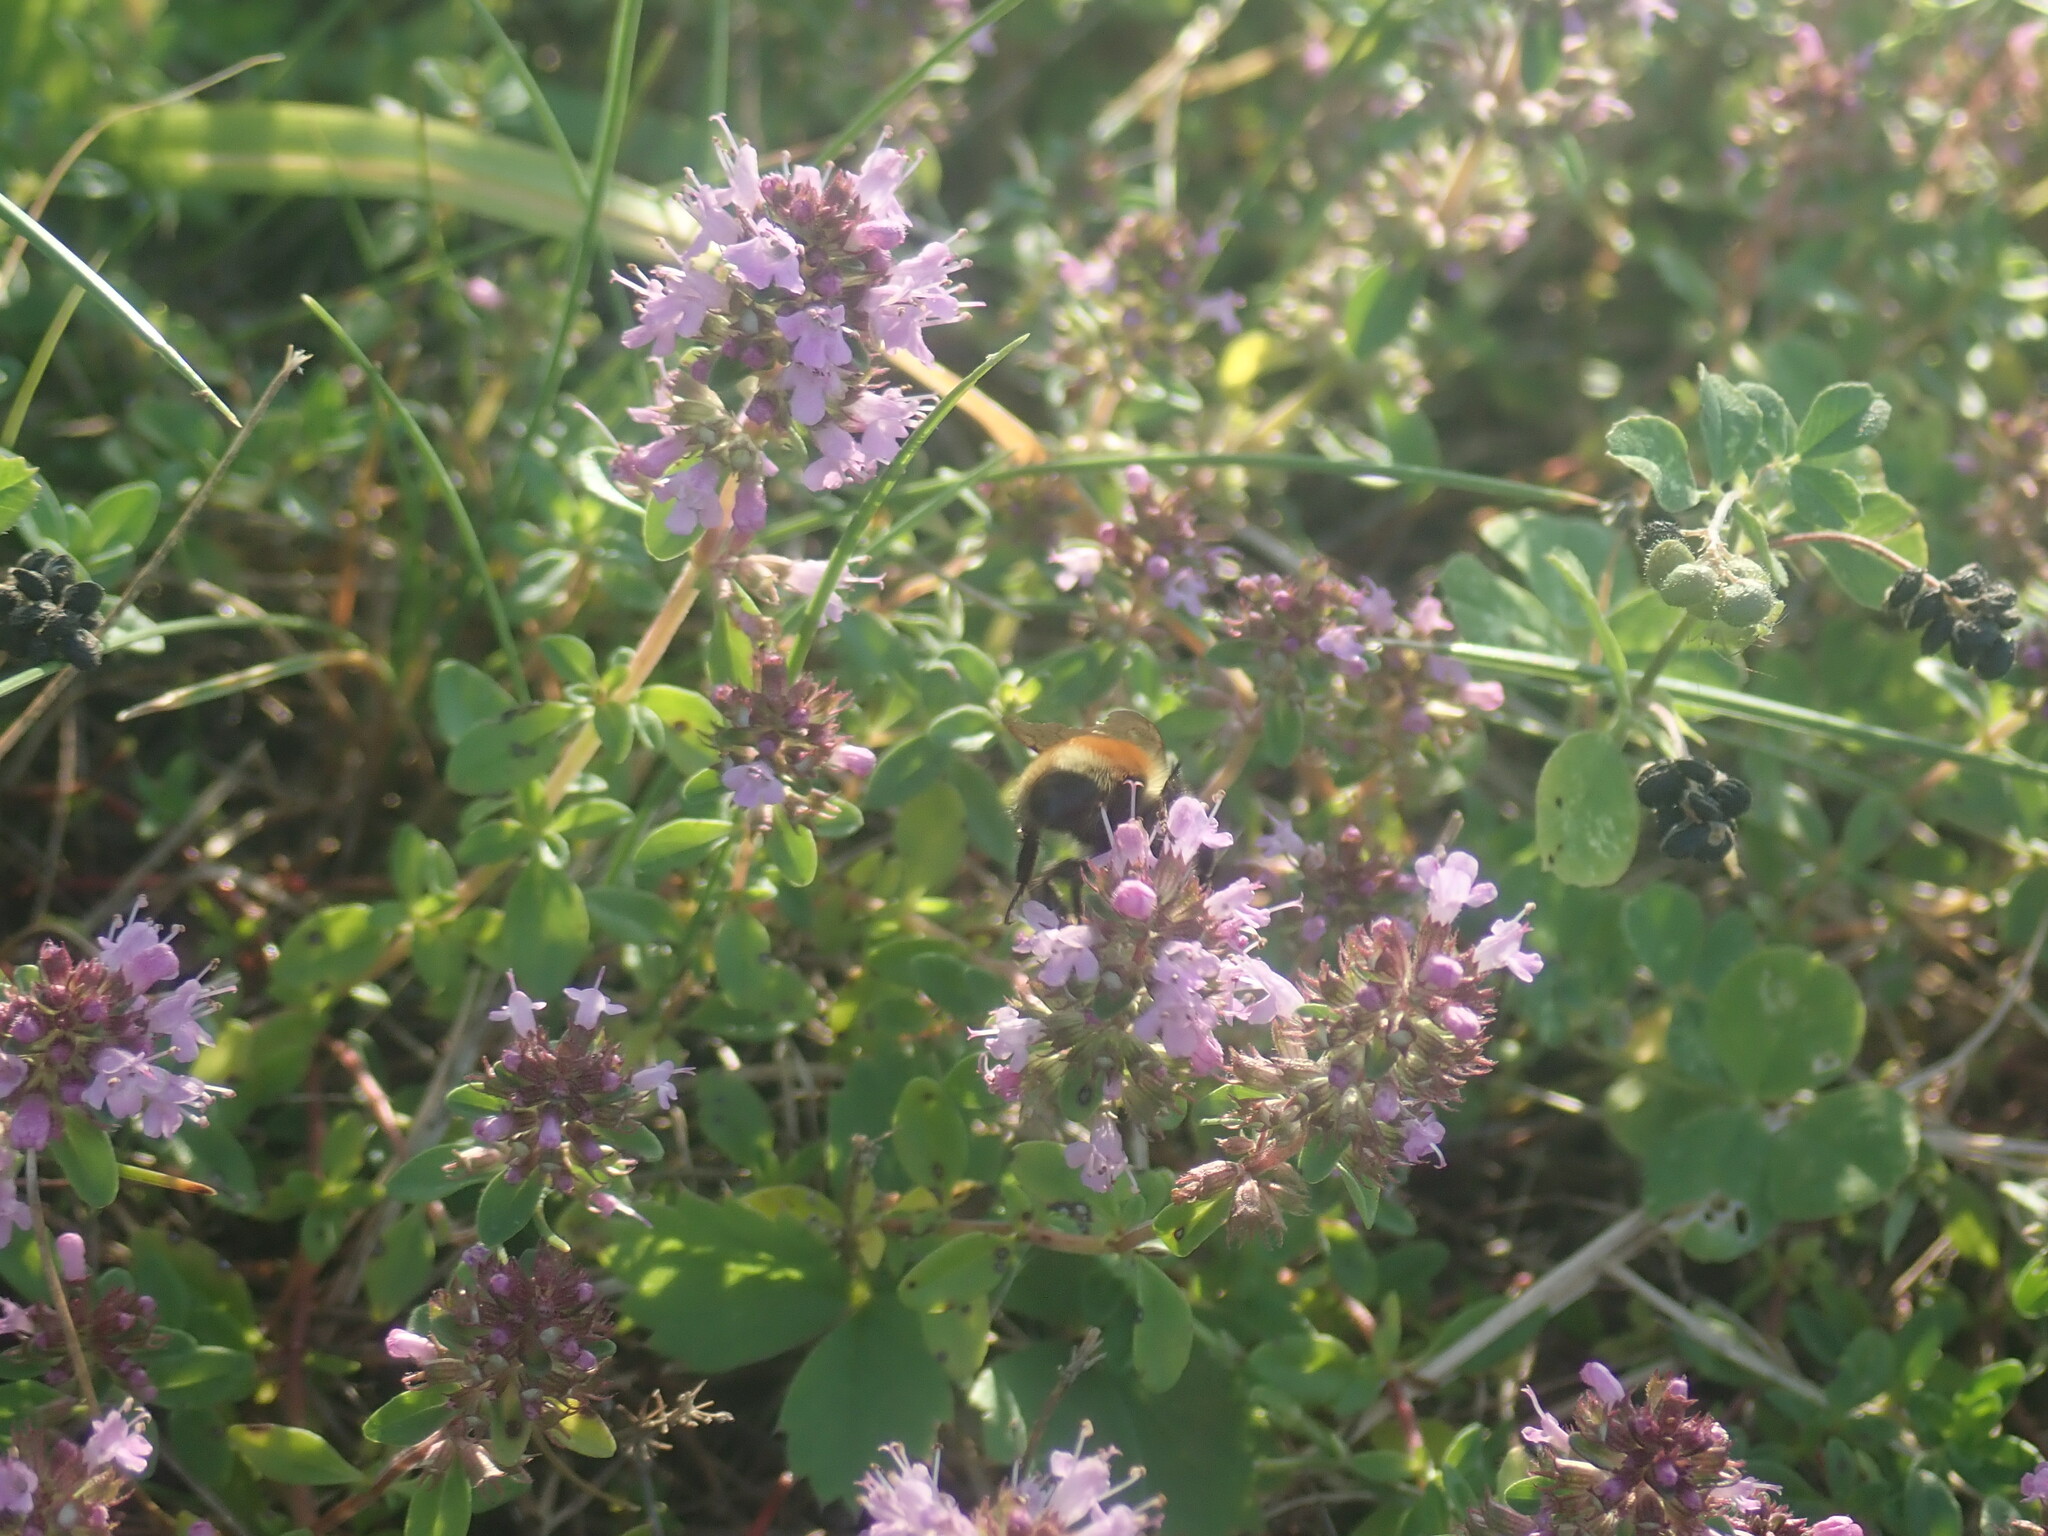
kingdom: Animalia
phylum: Arthropoda
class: Insecta
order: Hymenoptera
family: Apidae
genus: Bombus
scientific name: Bombus ternarius
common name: Tri-colored bumble bee
